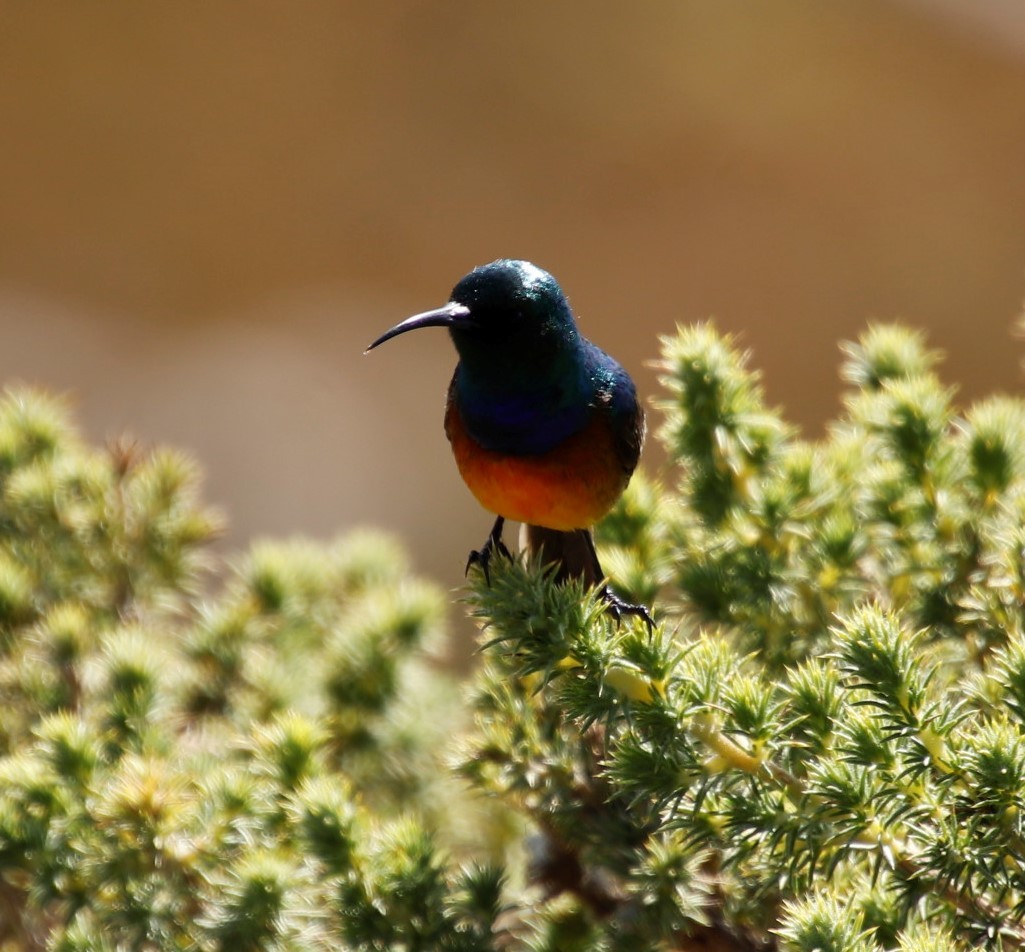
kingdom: Animalia
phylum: Chordata
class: Aves
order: Passeriformes
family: Nectariniidae
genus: Anthobaphes
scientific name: Anthobaphes violacea
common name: Orange-breasted sunbird
